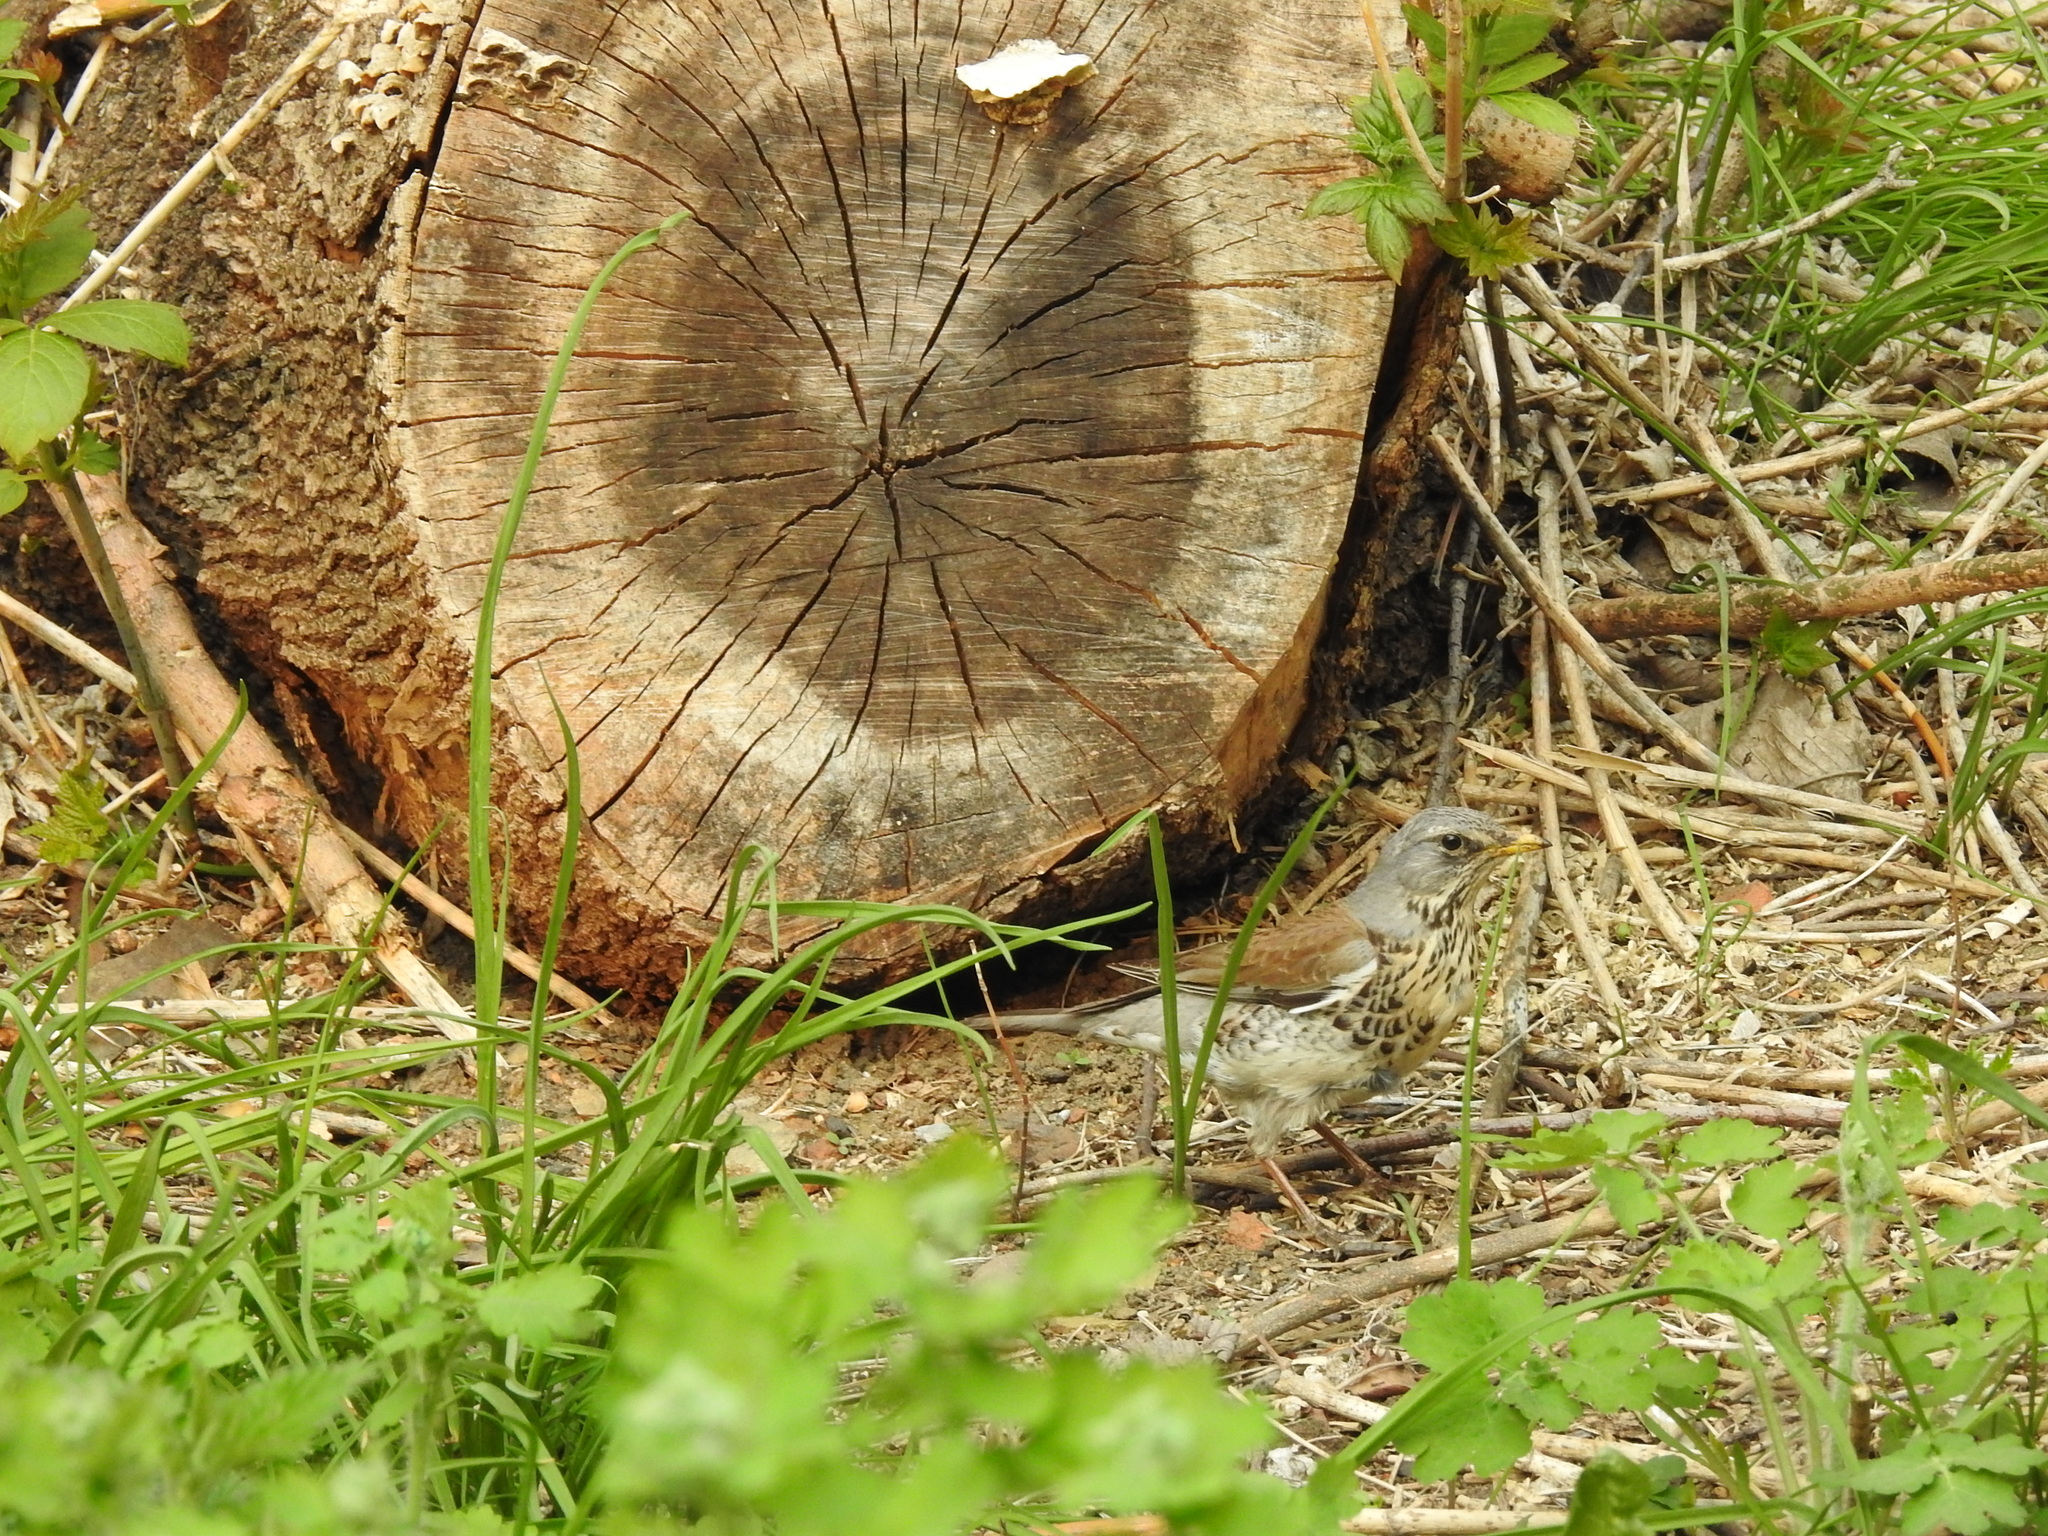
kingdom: Animalia
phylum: Chordata
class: Aves
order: Passeriformes
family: Turdidae
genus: Turdus
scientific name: Turdus pilaris
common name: Fieldfare
